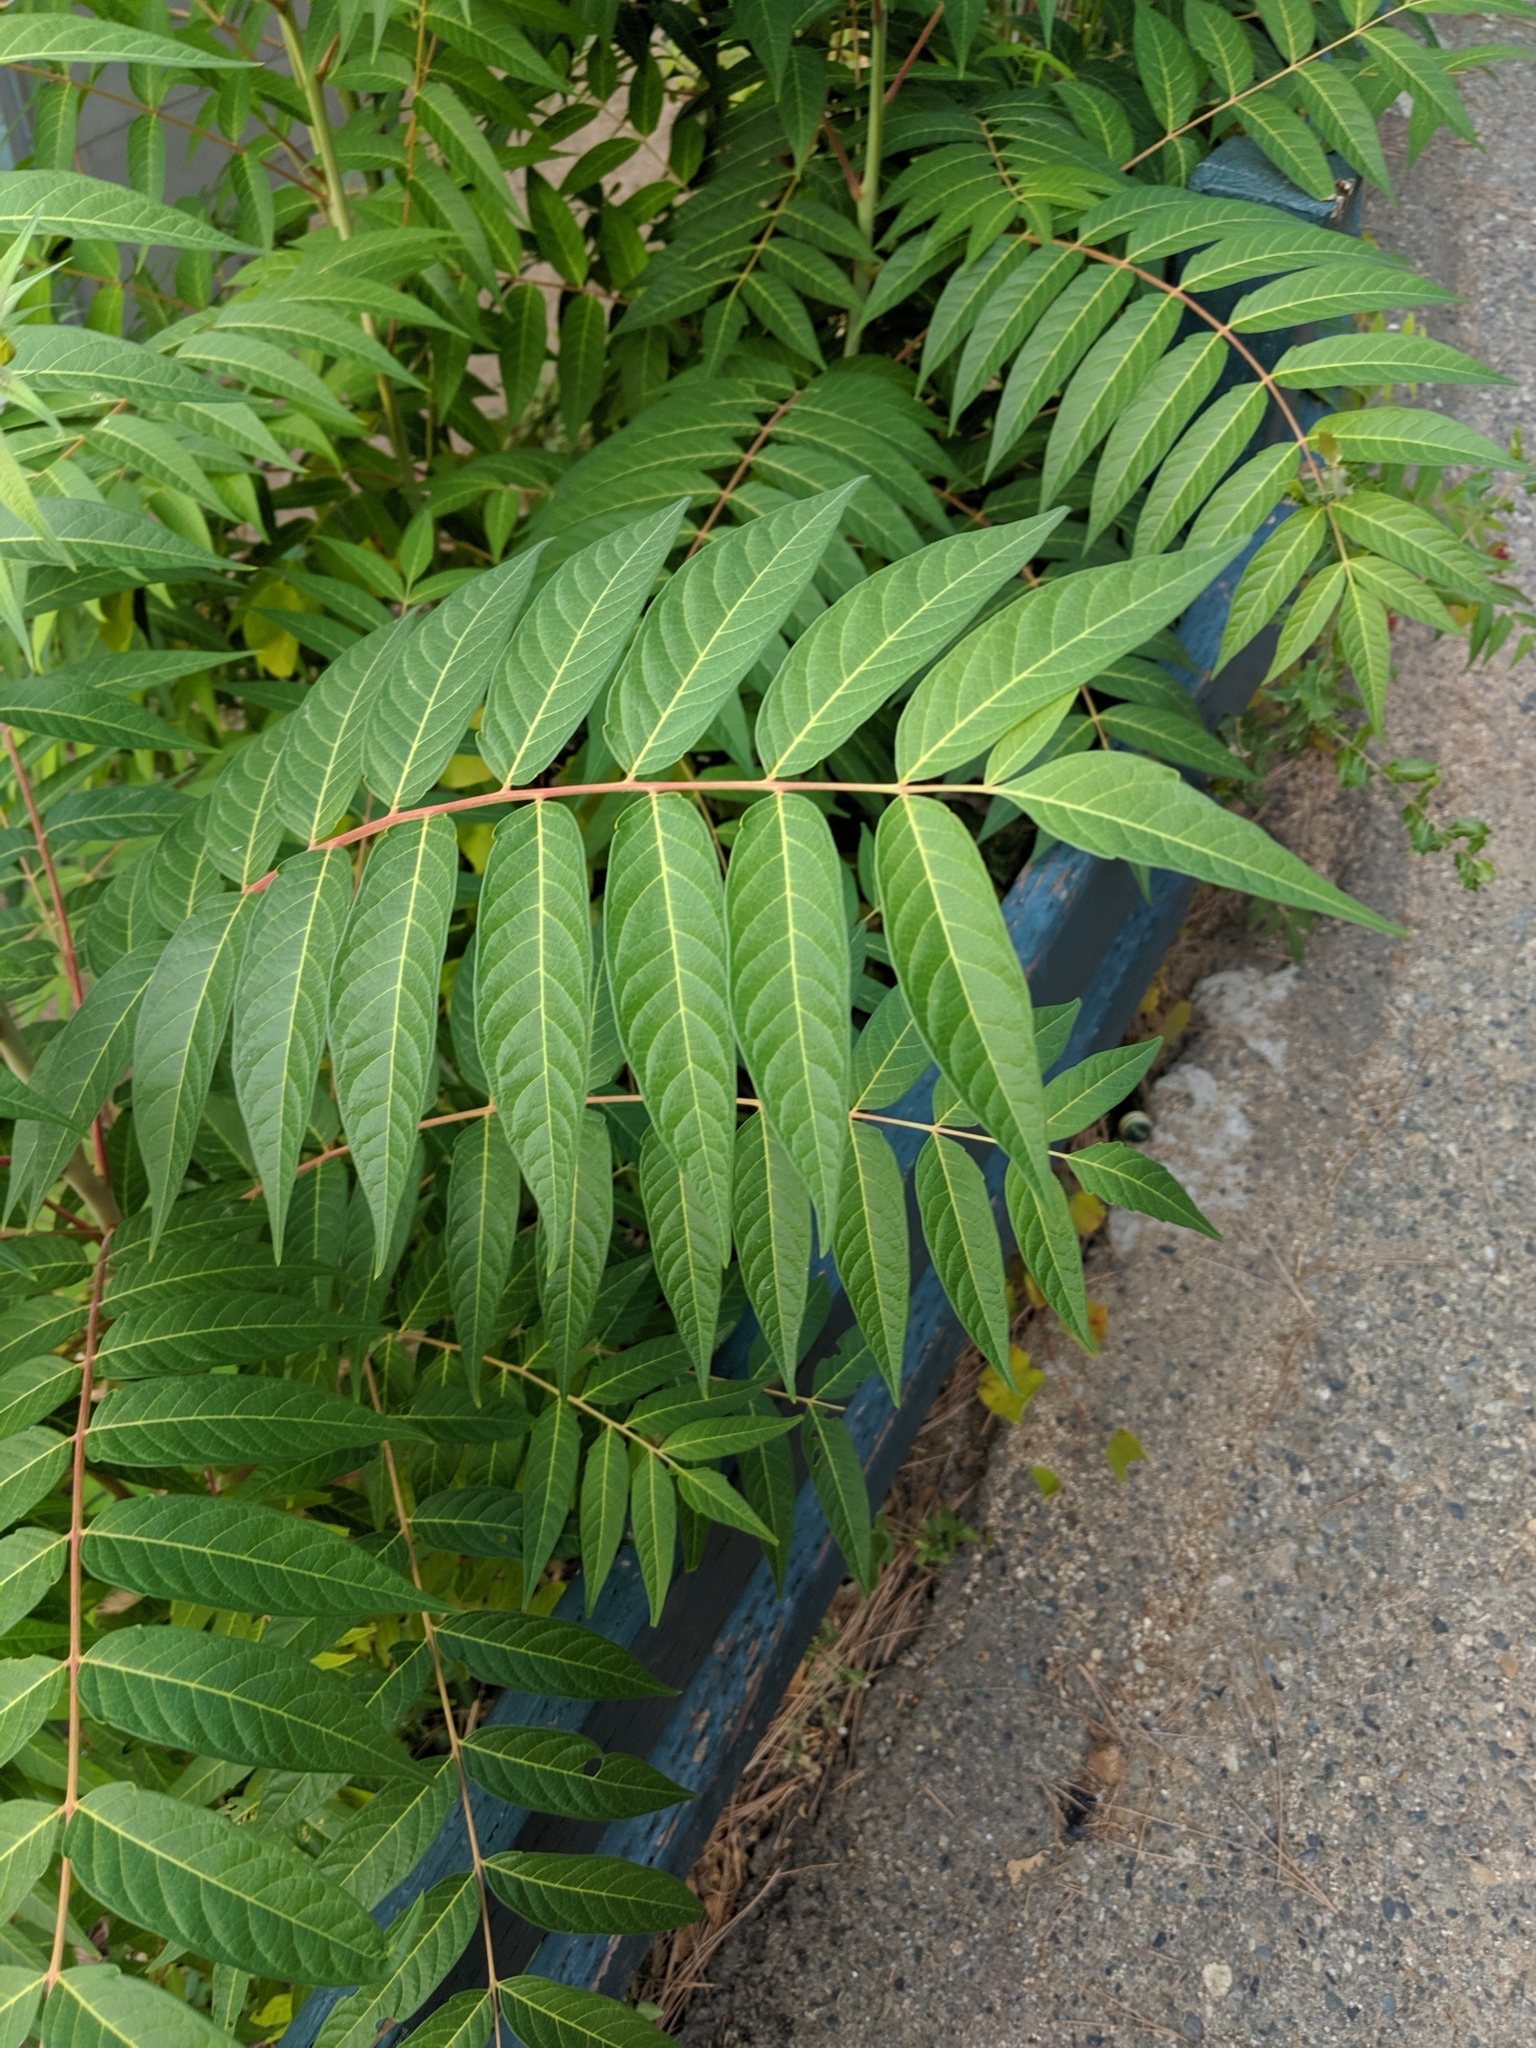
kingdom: Plantae
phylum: Tracheophyta
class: Magnoliopsida
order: Sapindales
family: Simaroubaceae
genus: Ailanthus
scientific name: Ailanthus altissima
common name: Tree-of-heaven
